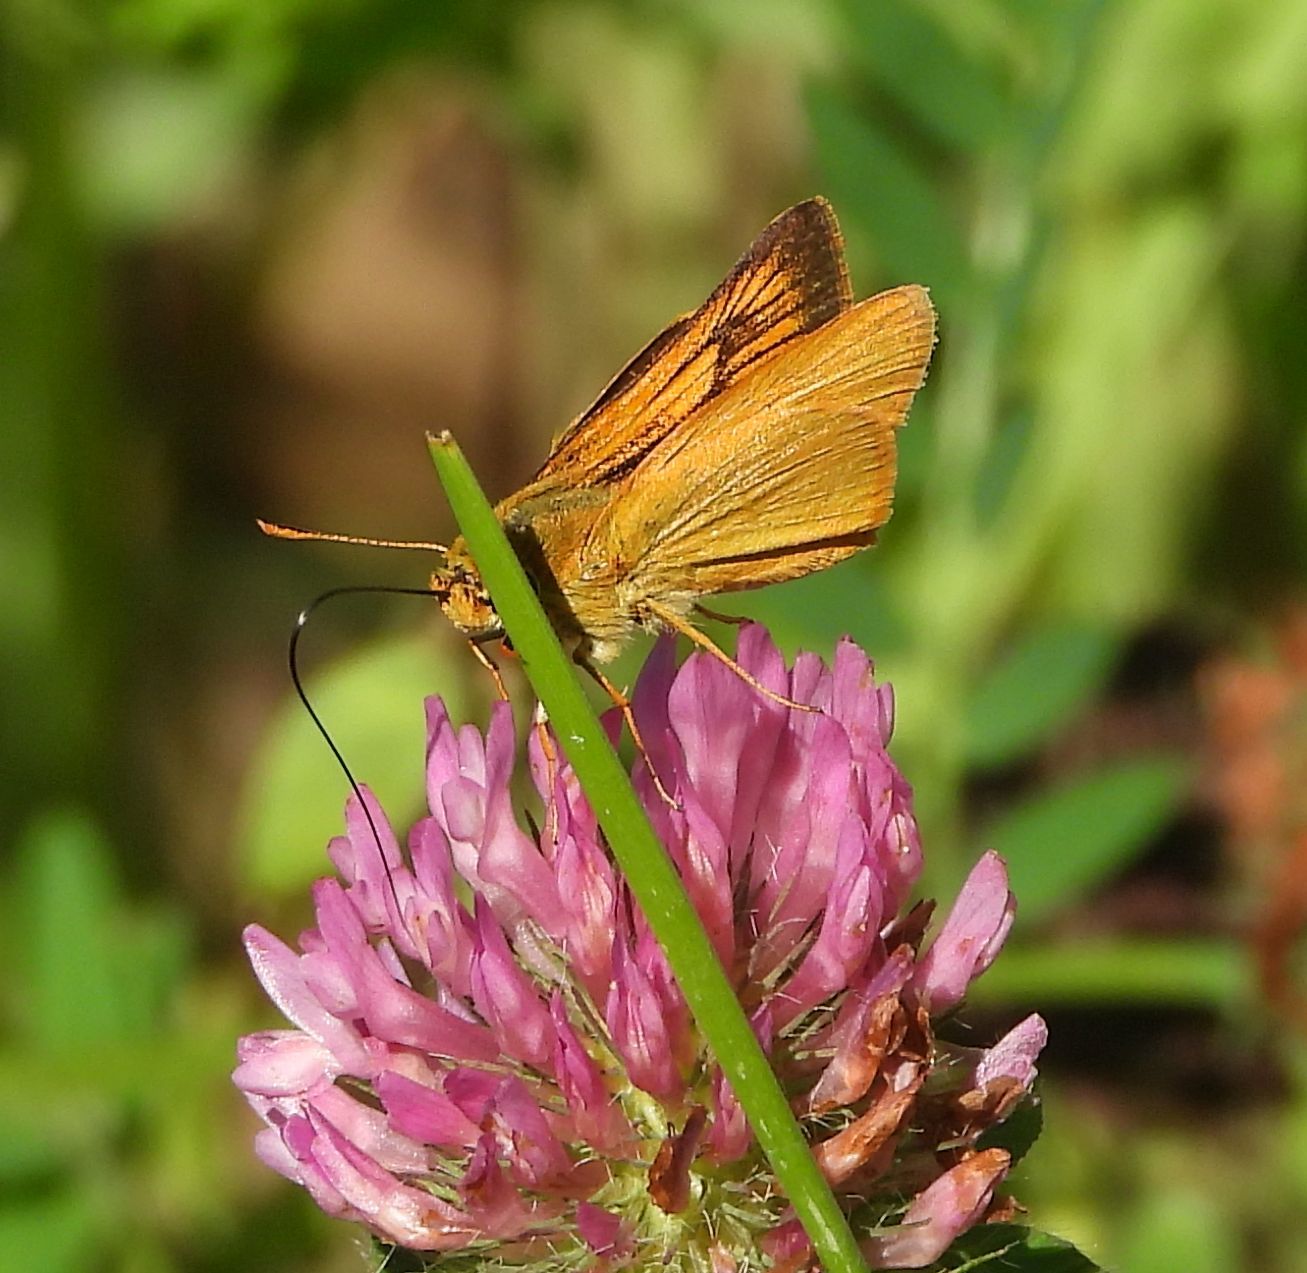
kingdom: Animalia
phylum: Arthropoda
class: Insecta
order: Lepidoptera
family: Hesperiidae
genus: Atrytone
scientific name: Atrytone delaware
